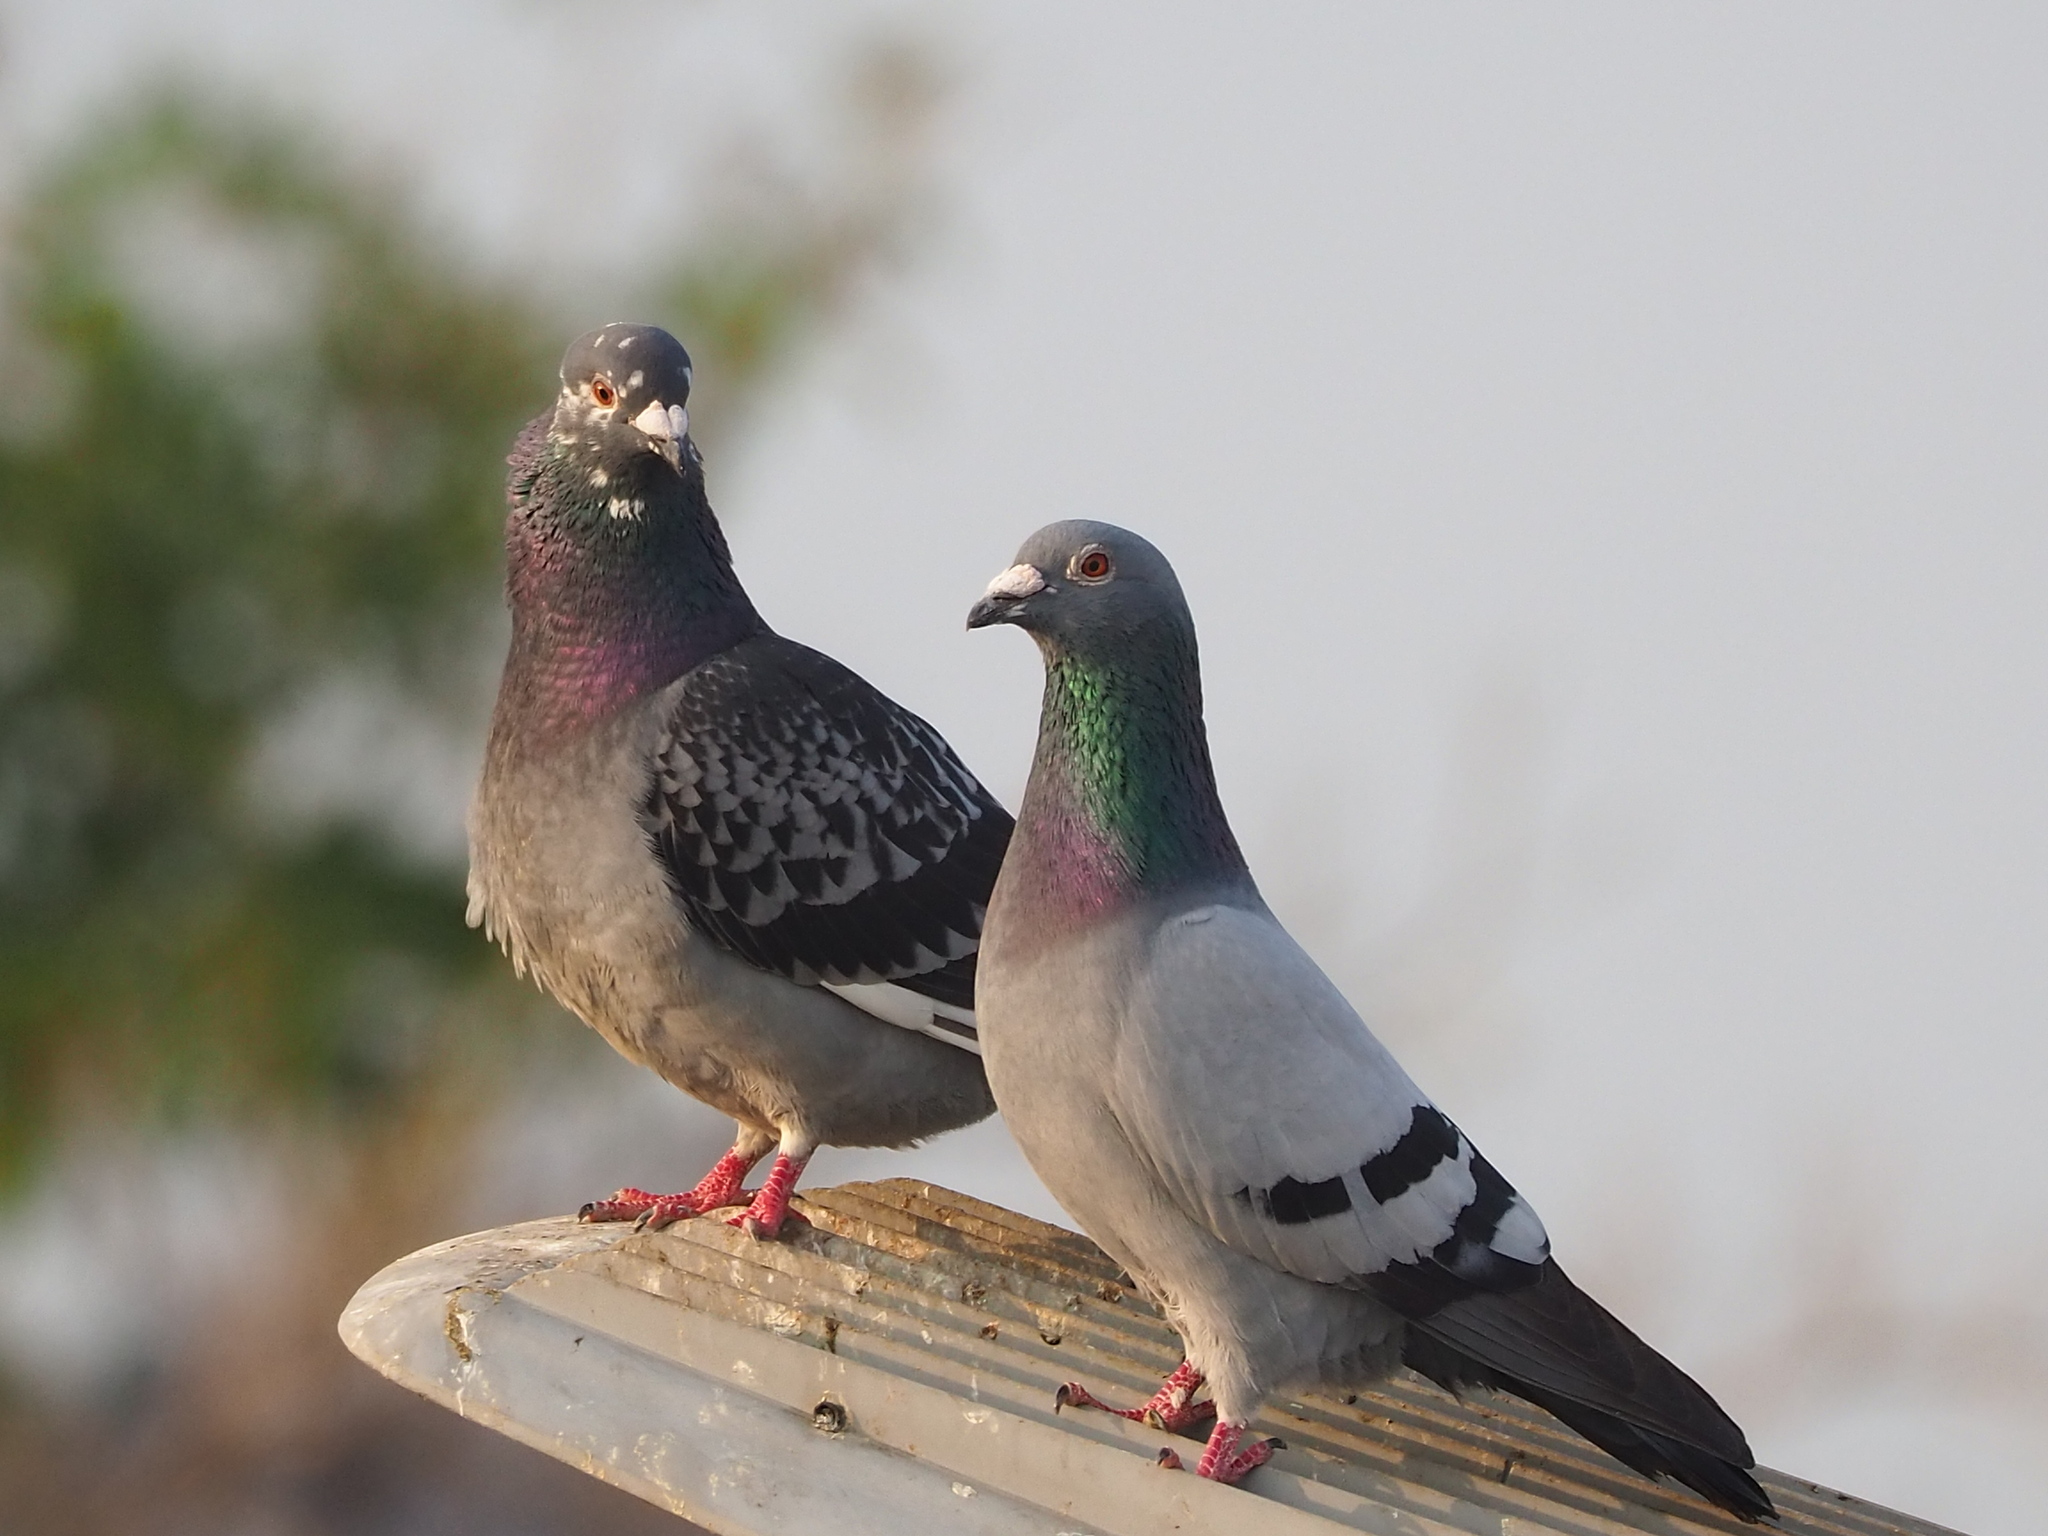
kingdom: Animalia
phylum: Chordata
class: Aves
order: Columbiformes
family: Columbidae
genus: Columba
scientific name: Columba livia
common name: Rock pigeon
